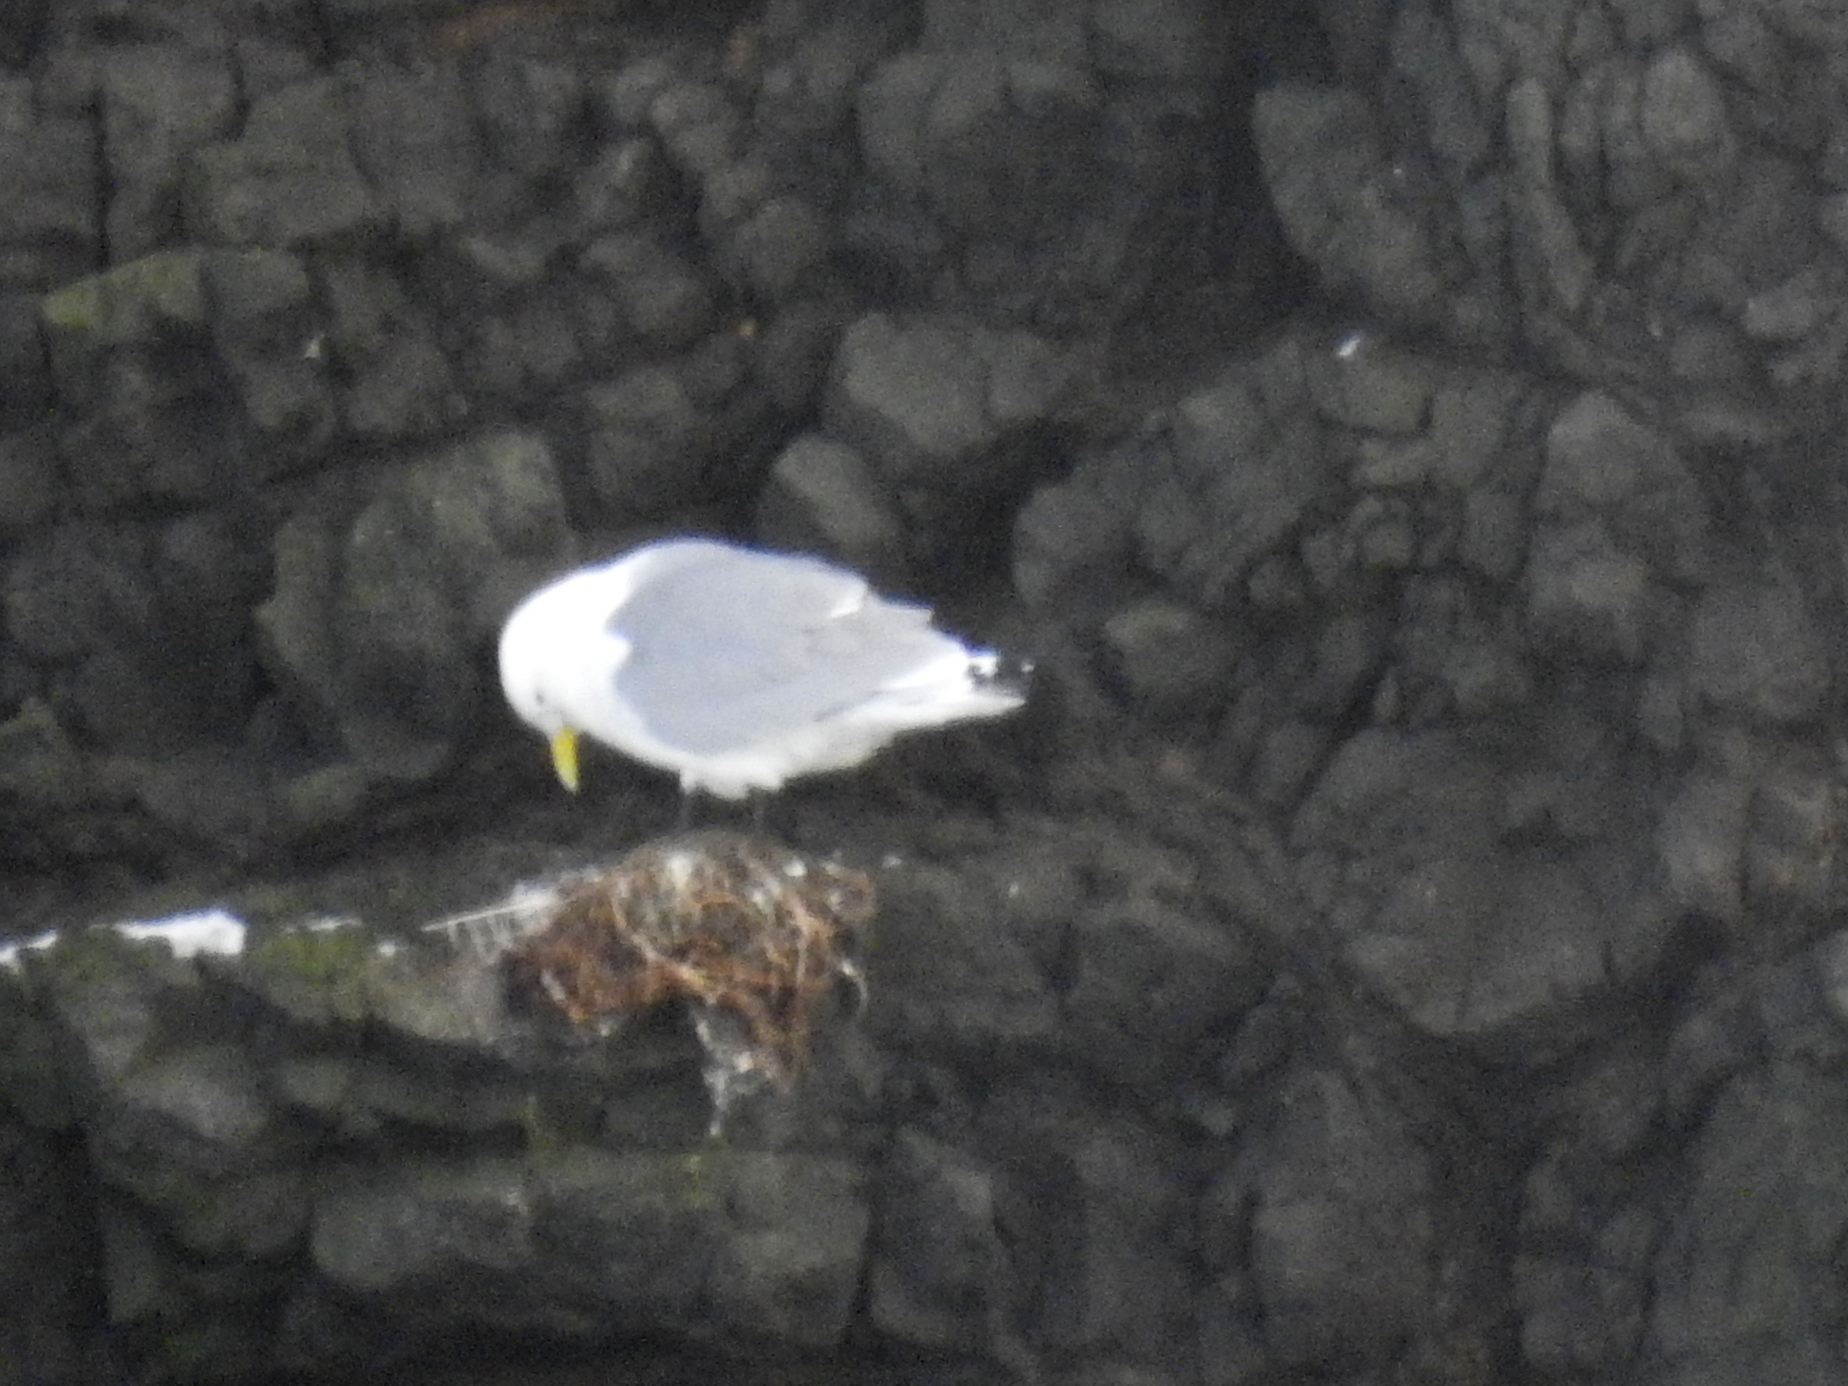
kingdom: Animalia
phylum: Chordata
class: Aves
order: Charadriiformes
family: Laridae
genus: Rissa
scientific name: Rissa tridactyla
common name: Black-legged kittiwake
